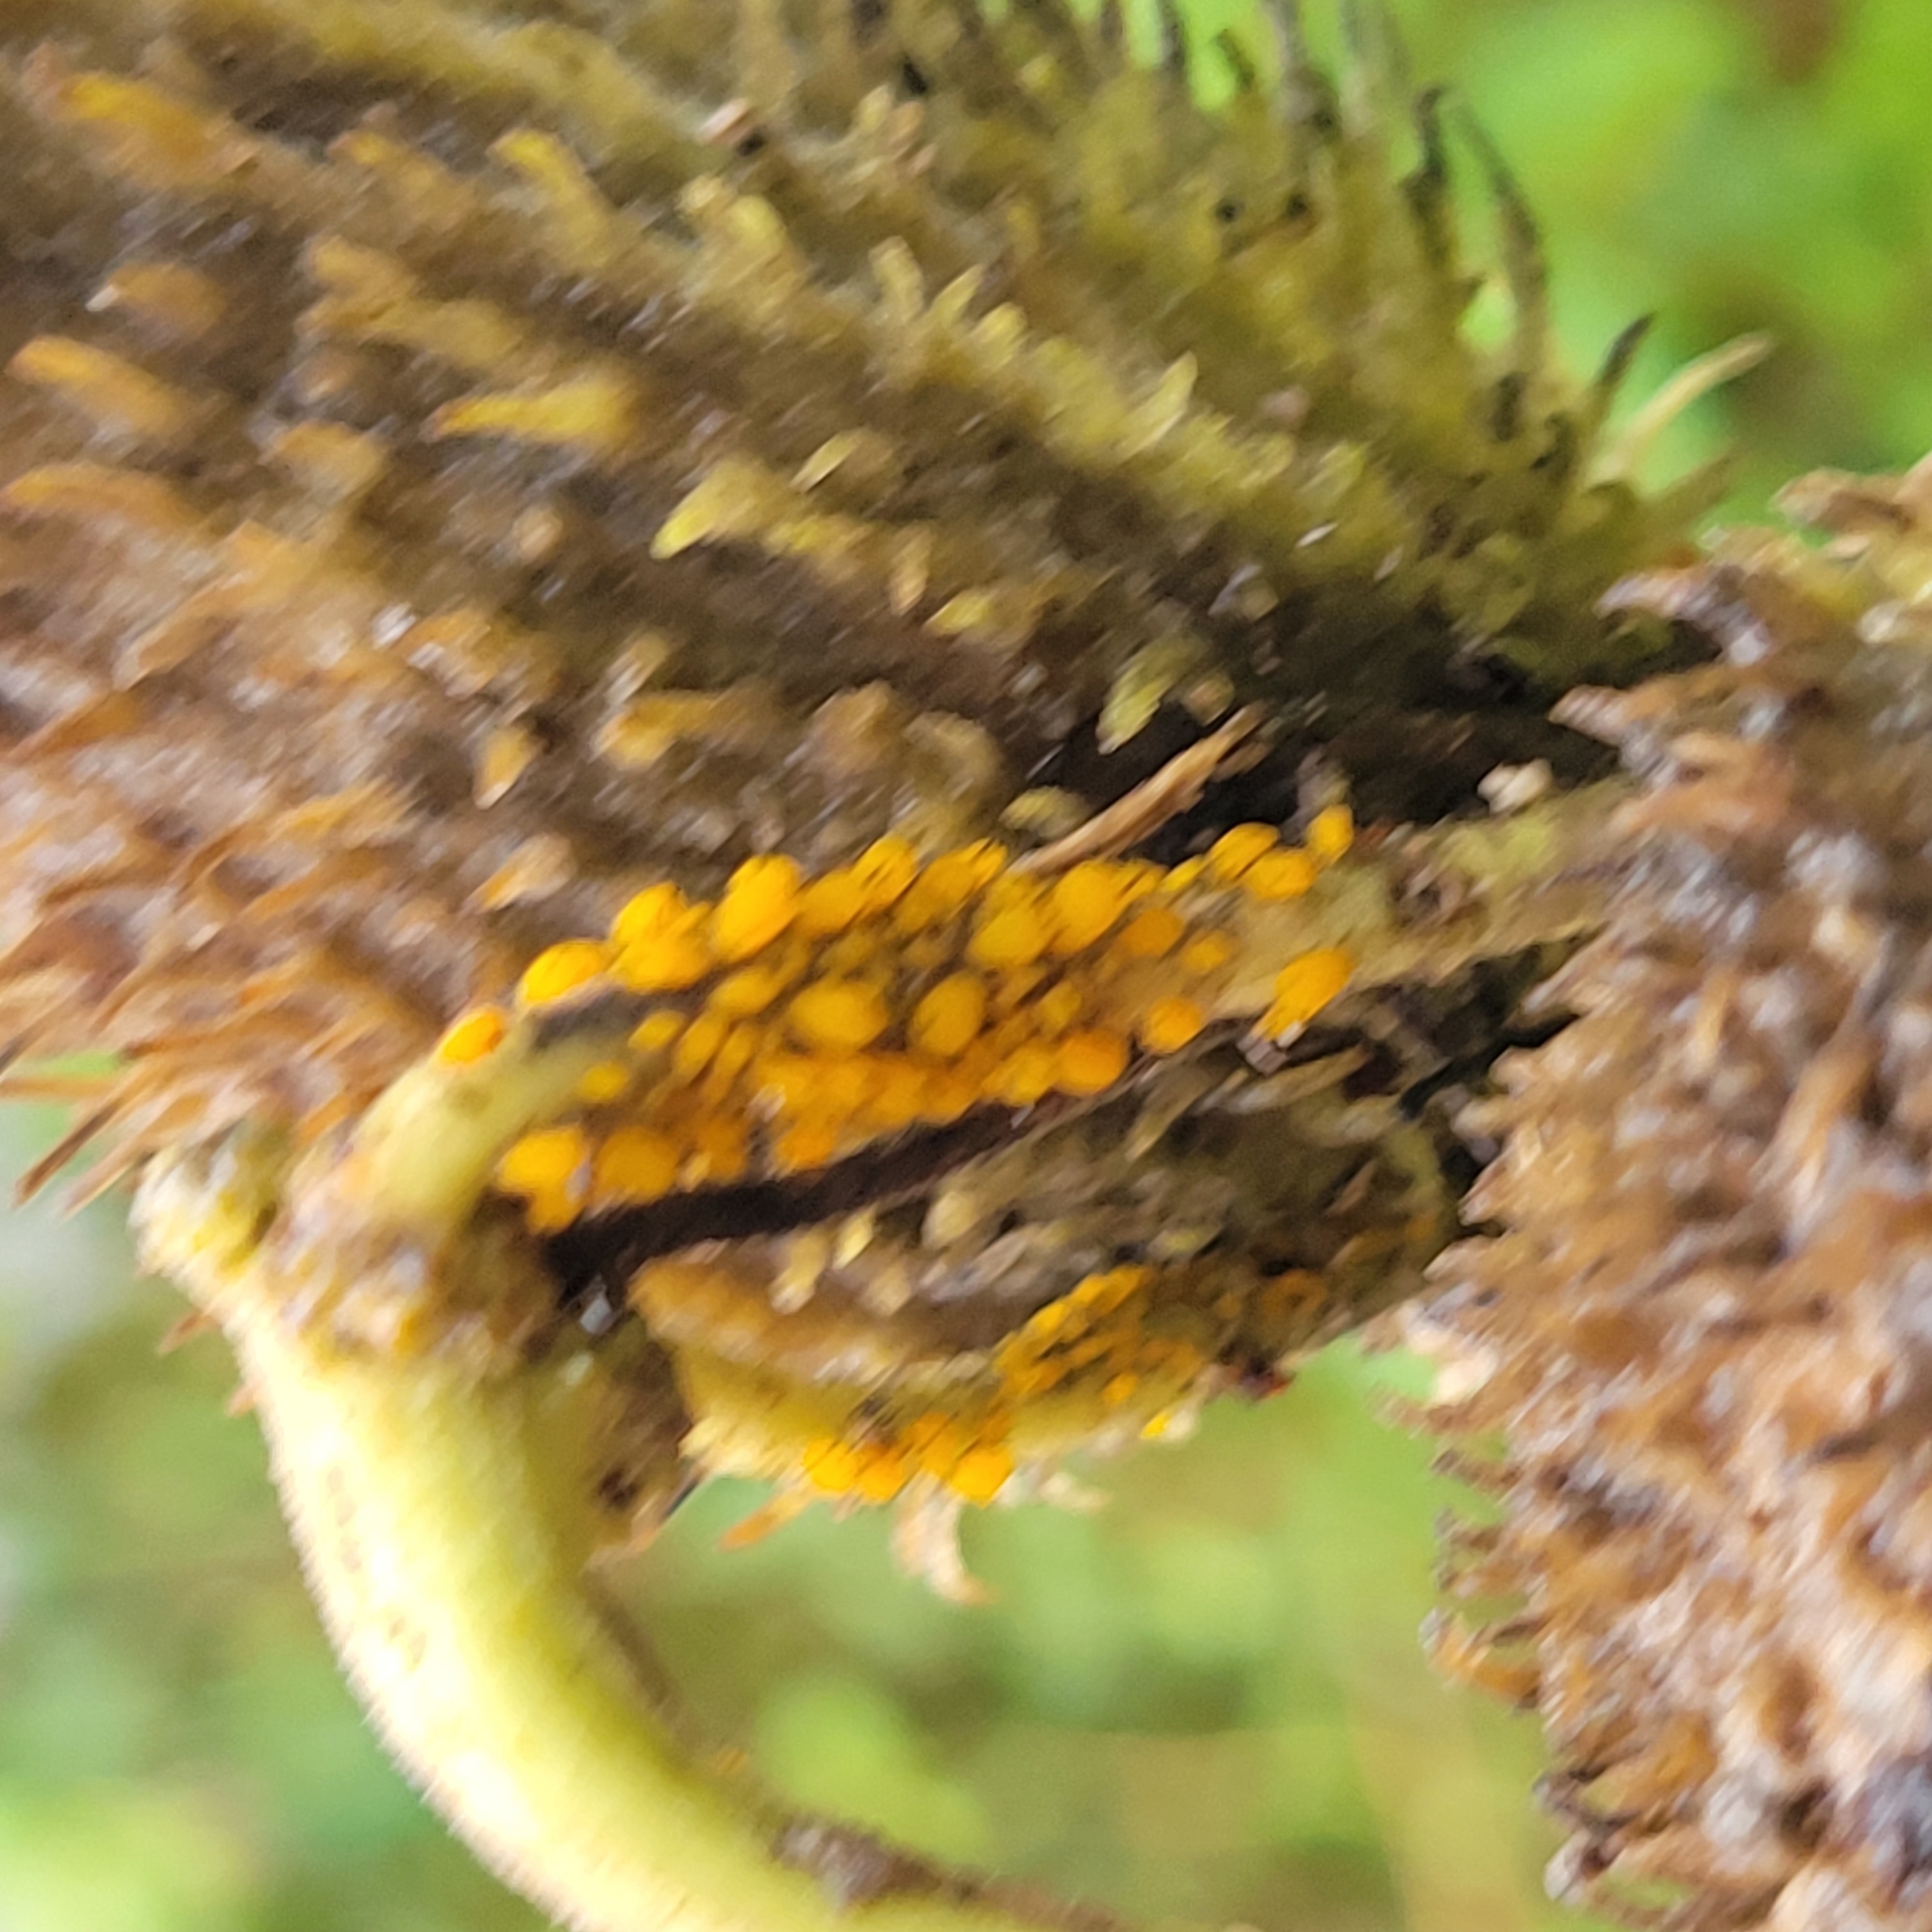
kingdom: Animalia
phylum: Arthropoda
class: Insecta
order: Hemiptera
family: Aphididae
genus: Aphis
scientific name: Aphis nerii
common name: Oleander aphid
